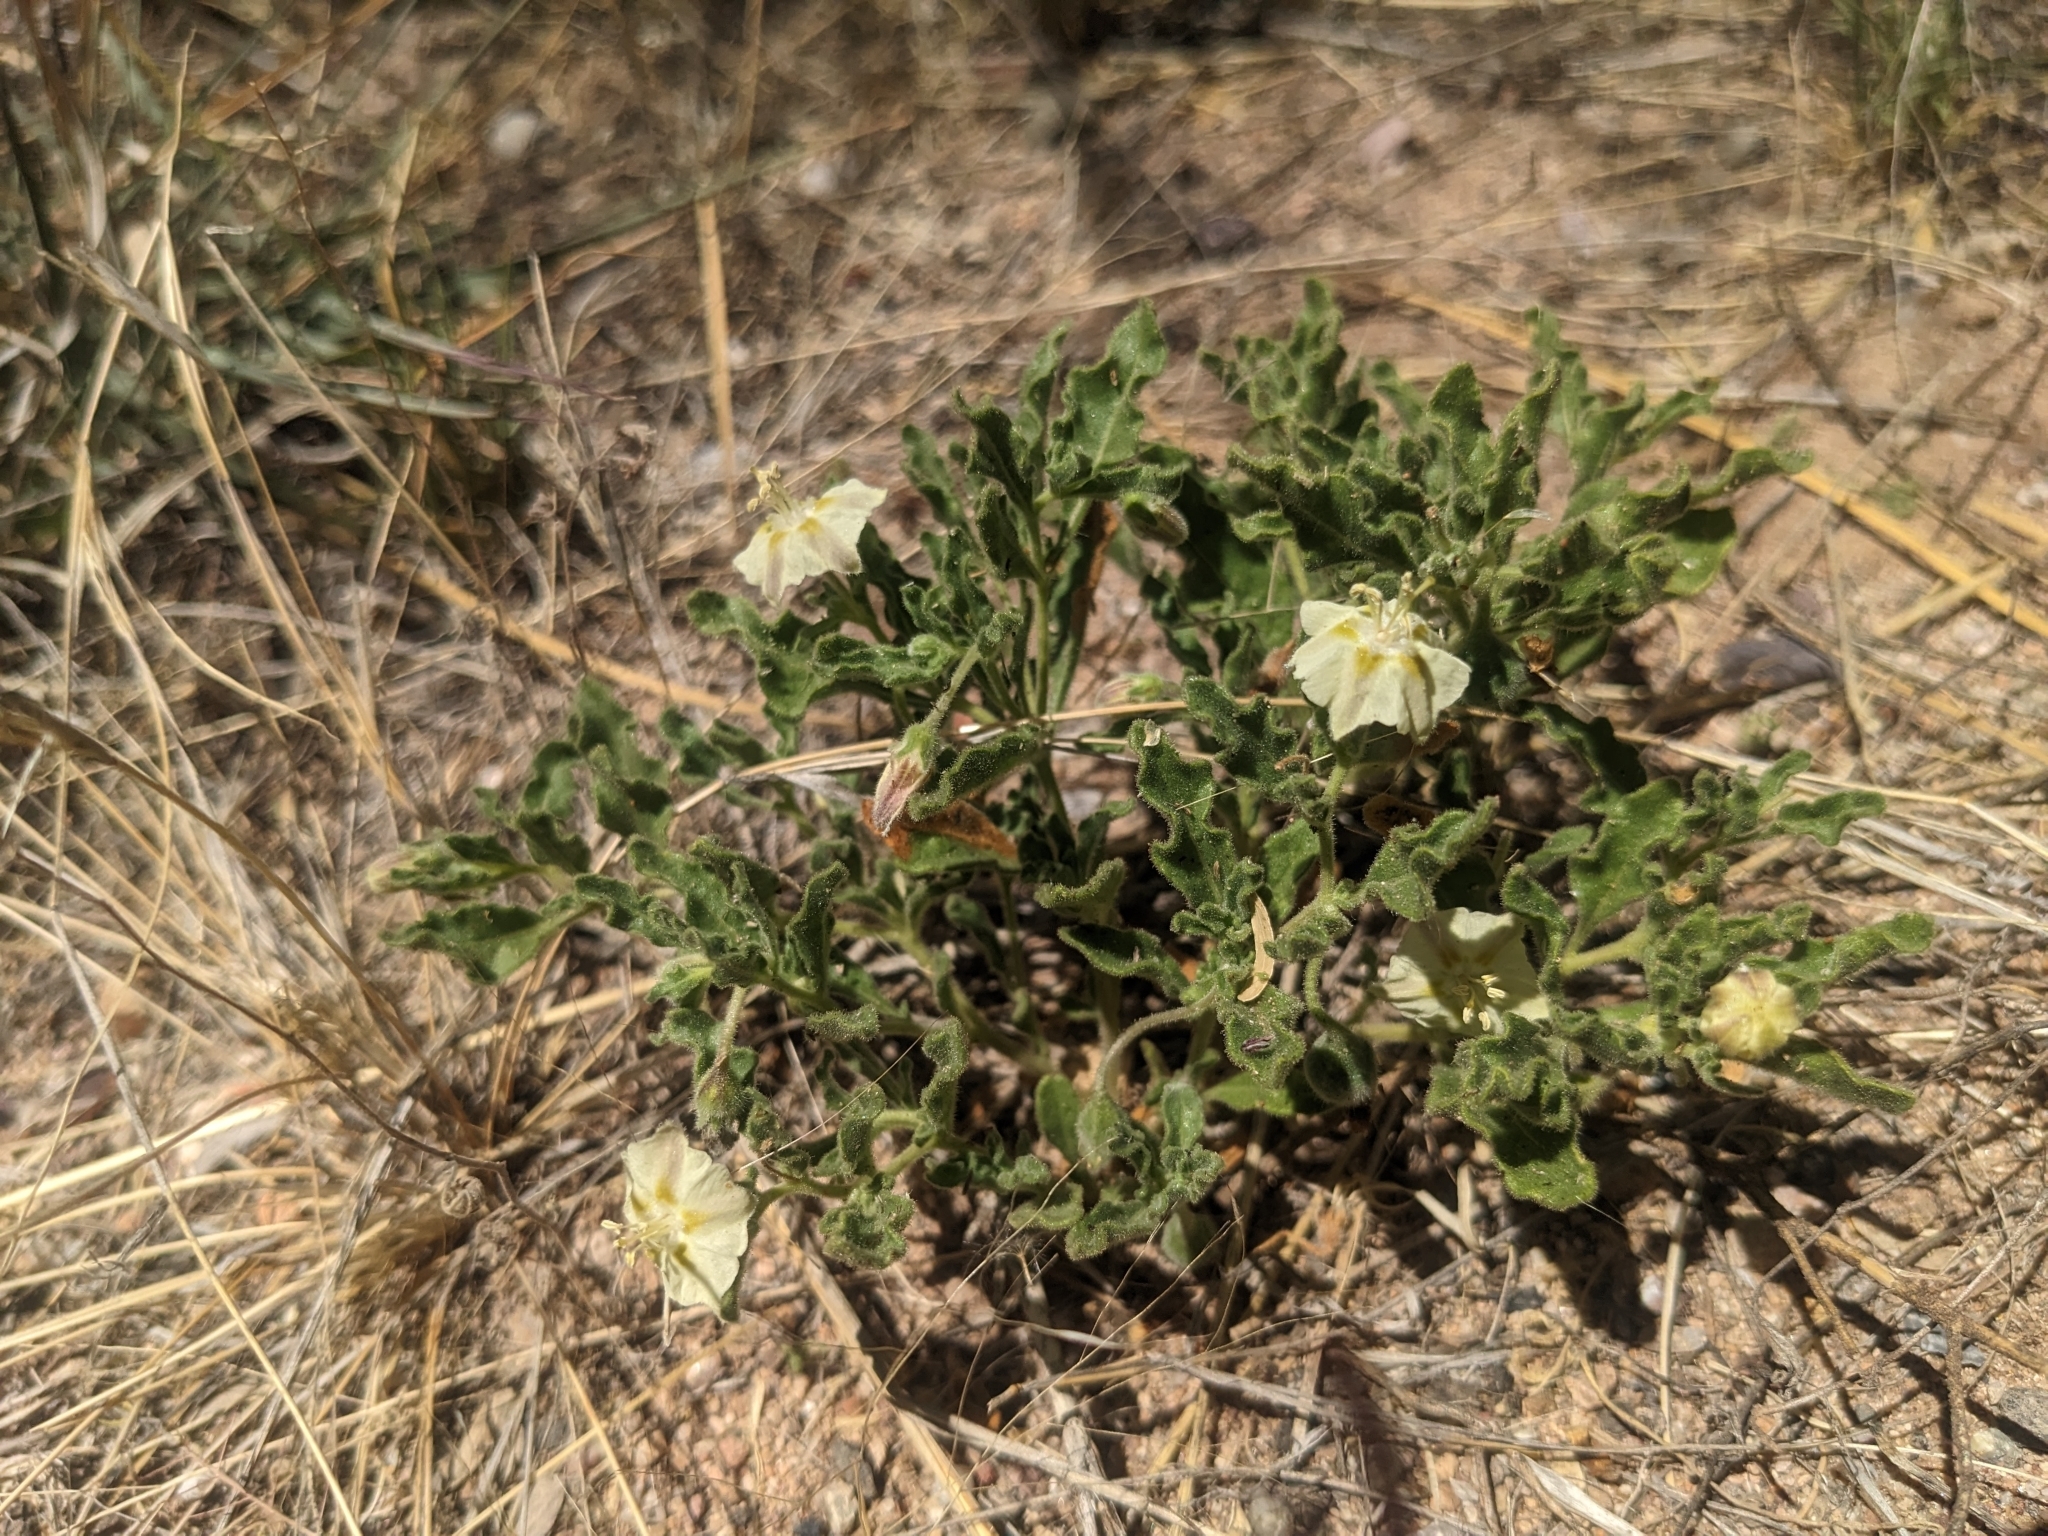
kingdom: Plantae
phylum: Tracheophyta
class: Magnoliopsida
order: Solanales
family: Solanaceae
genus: Chamaesaracha
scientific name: Chamaesaracha sordida
